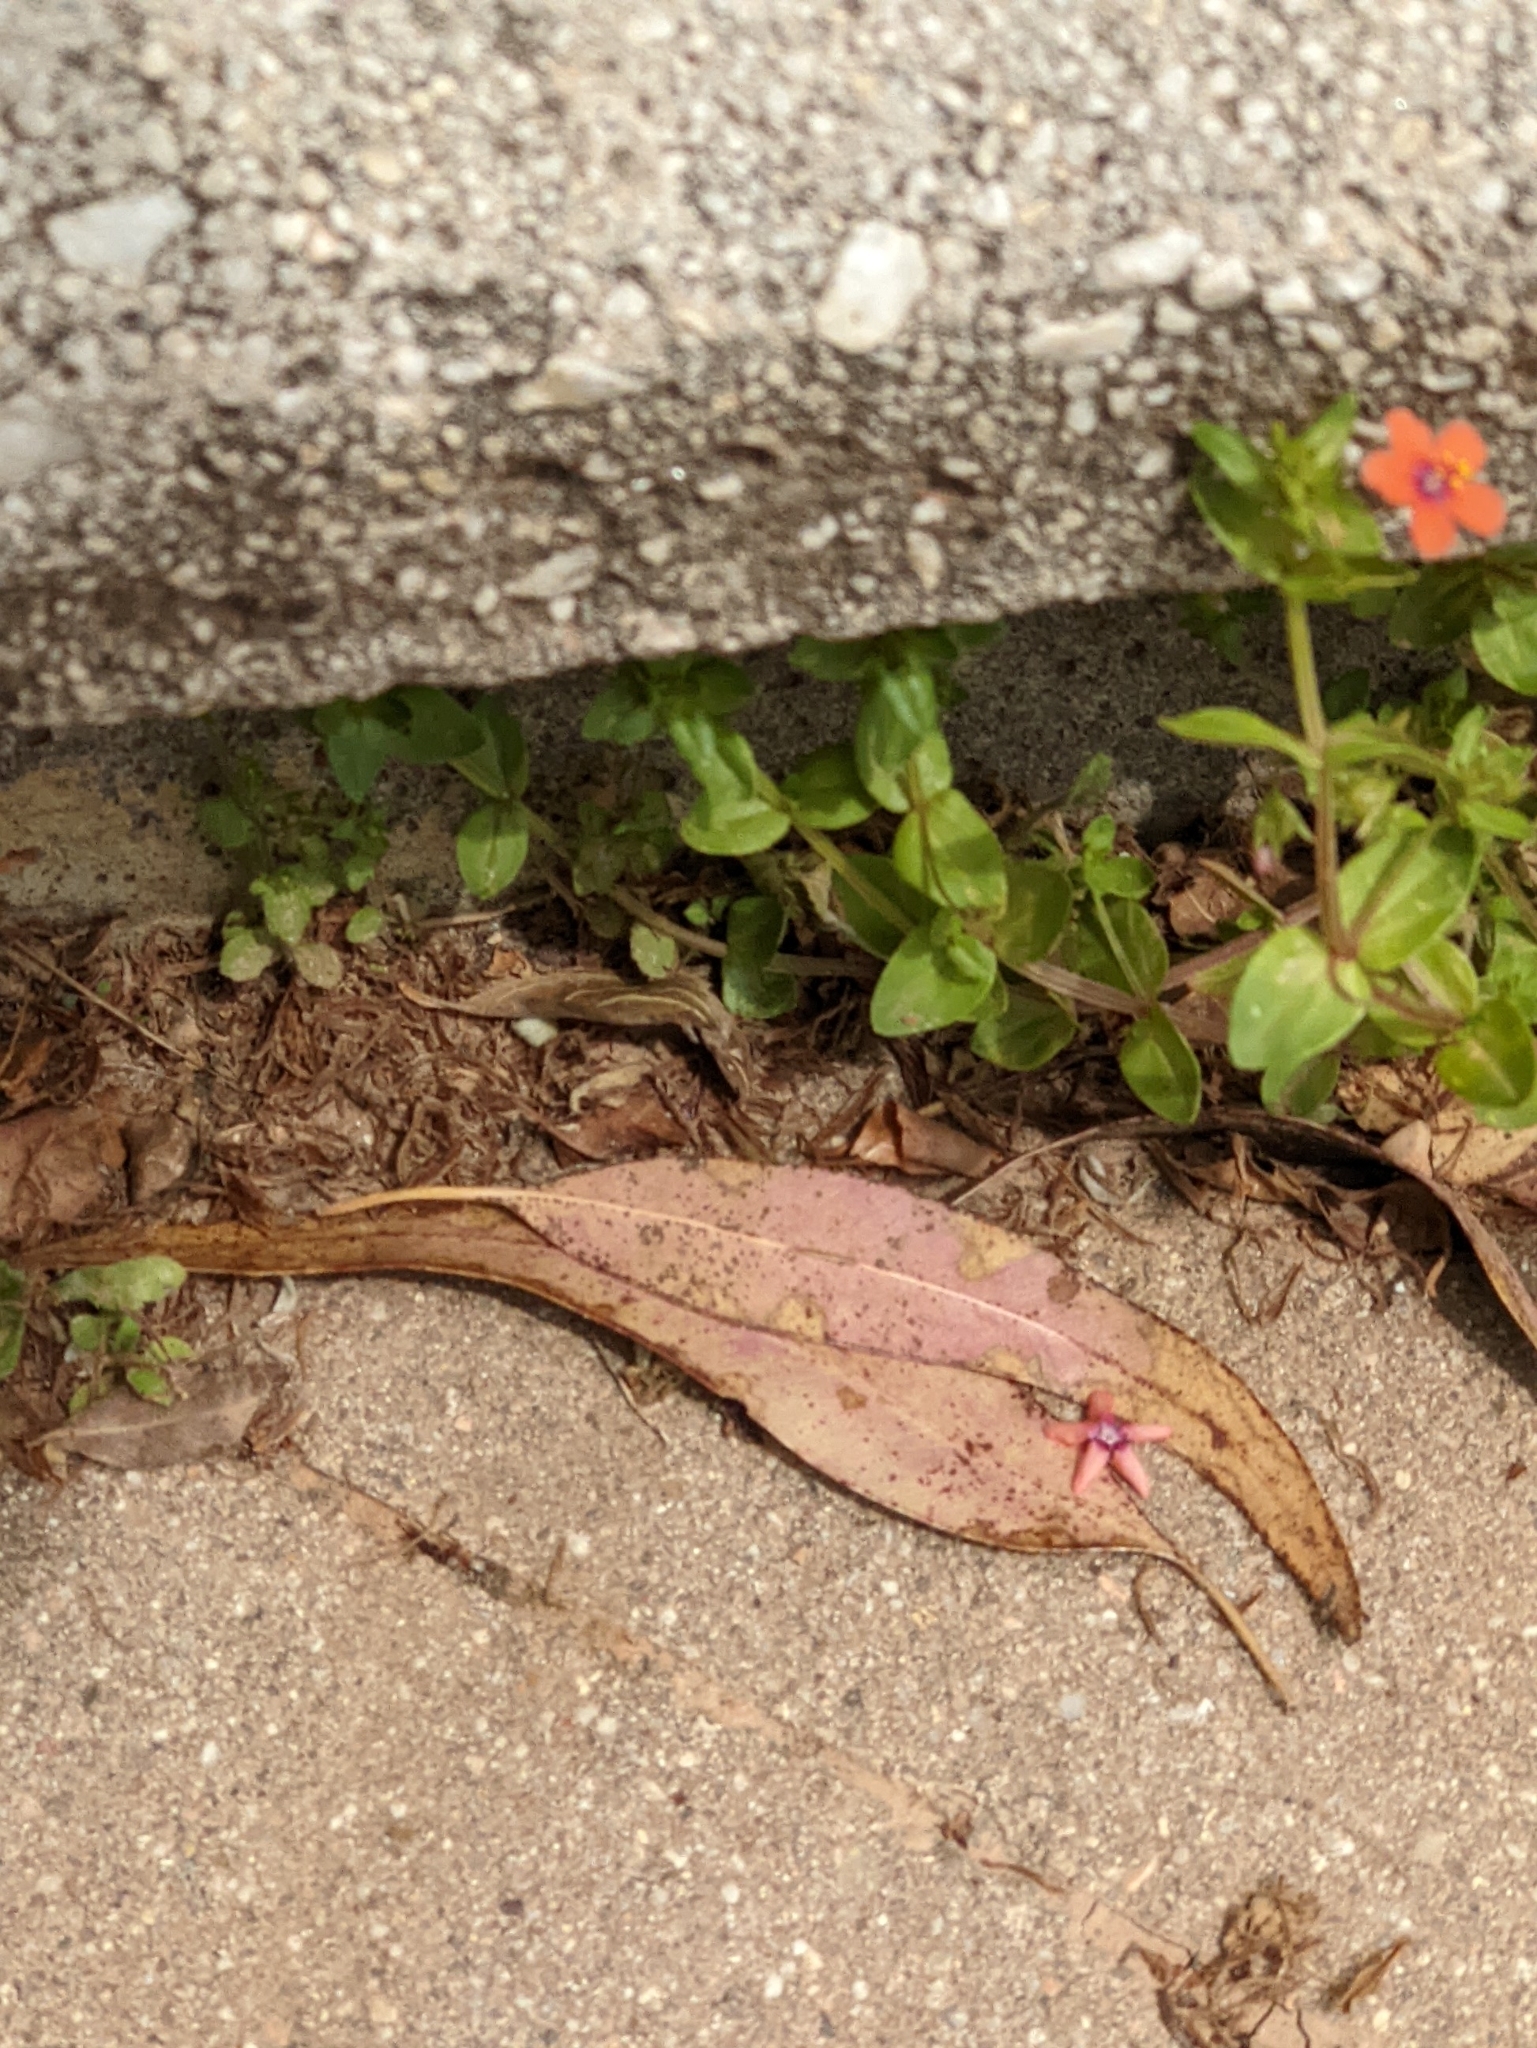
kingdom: Plantae
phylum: Tracheophyta
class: Magnoliopsida
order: Ericales
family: Primulaceae
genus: Lysimachia
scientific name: Lysimachia arvensis
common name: Scarlet pimpernel
